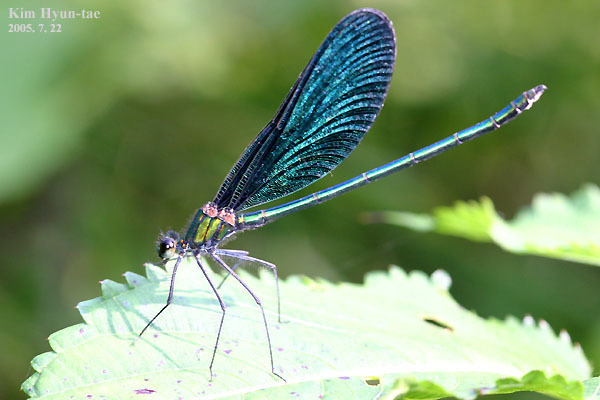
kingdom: Animalia
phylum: Arthropoda
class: Insecta
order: Odonata
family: Calopterygidae
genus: Calopteryx
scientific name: Calopteryx japonica
